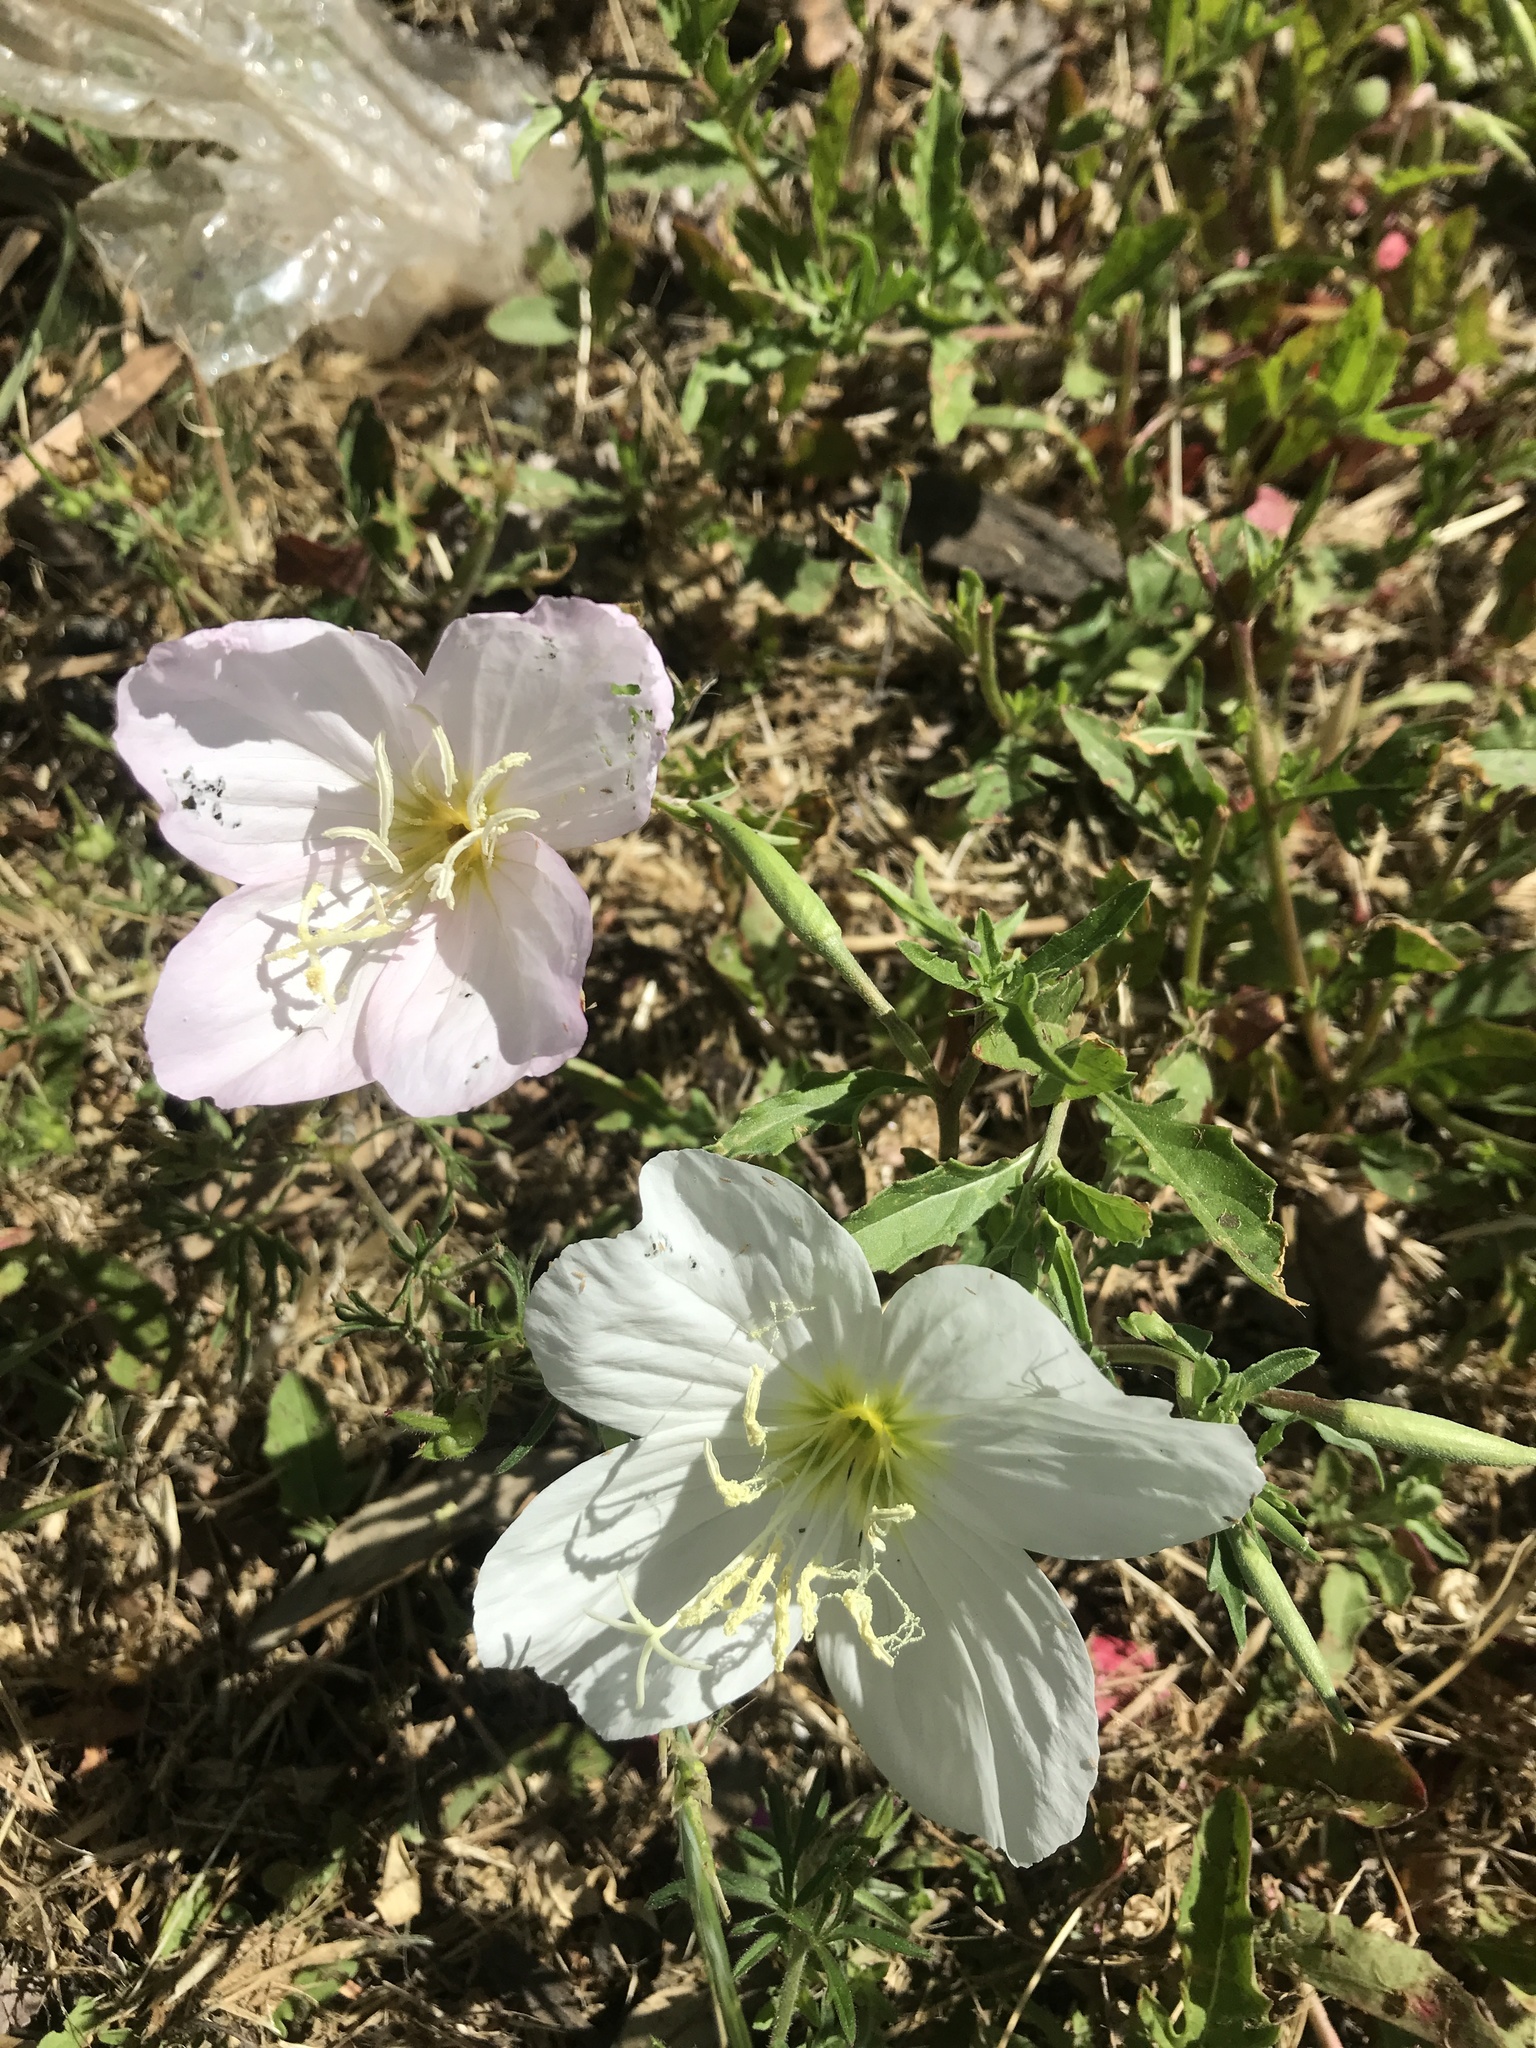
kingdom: Plantae
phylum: Tracheophyta
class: Magnoliopsida
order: Myrtales
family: Onagraceae
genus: Oenothera
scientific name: Oenothera speciosa
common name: White evening-primrose
